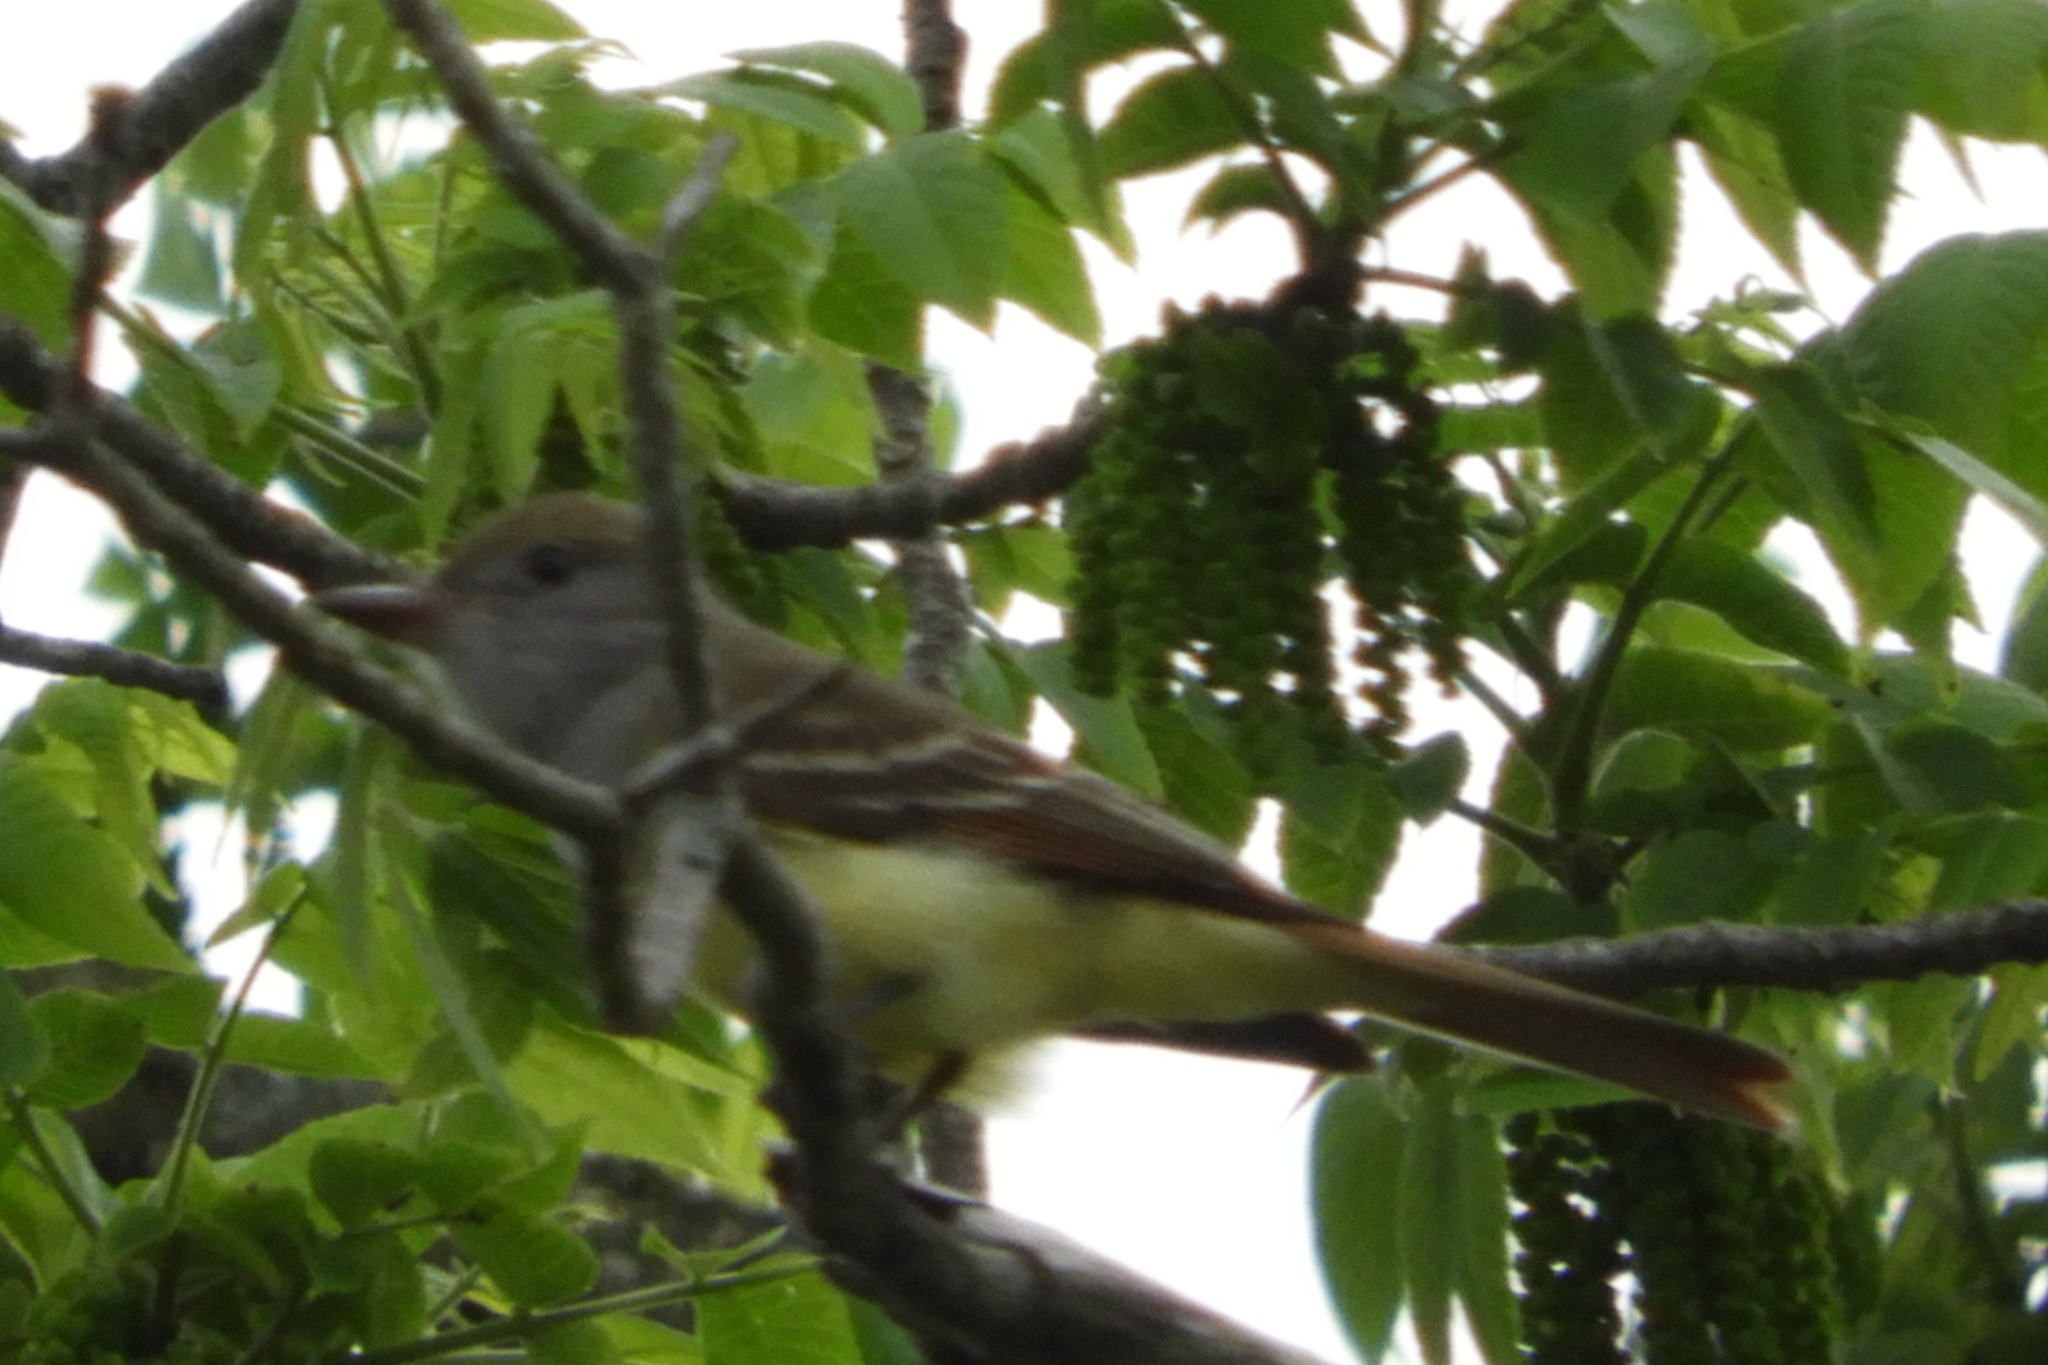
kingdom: Animalia
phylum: Chordata
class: Aves
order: Passeriformes
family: Tyrannidae
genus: Myiarchus
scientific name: Myiarchus crinitus
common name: Great crested flycatcher
